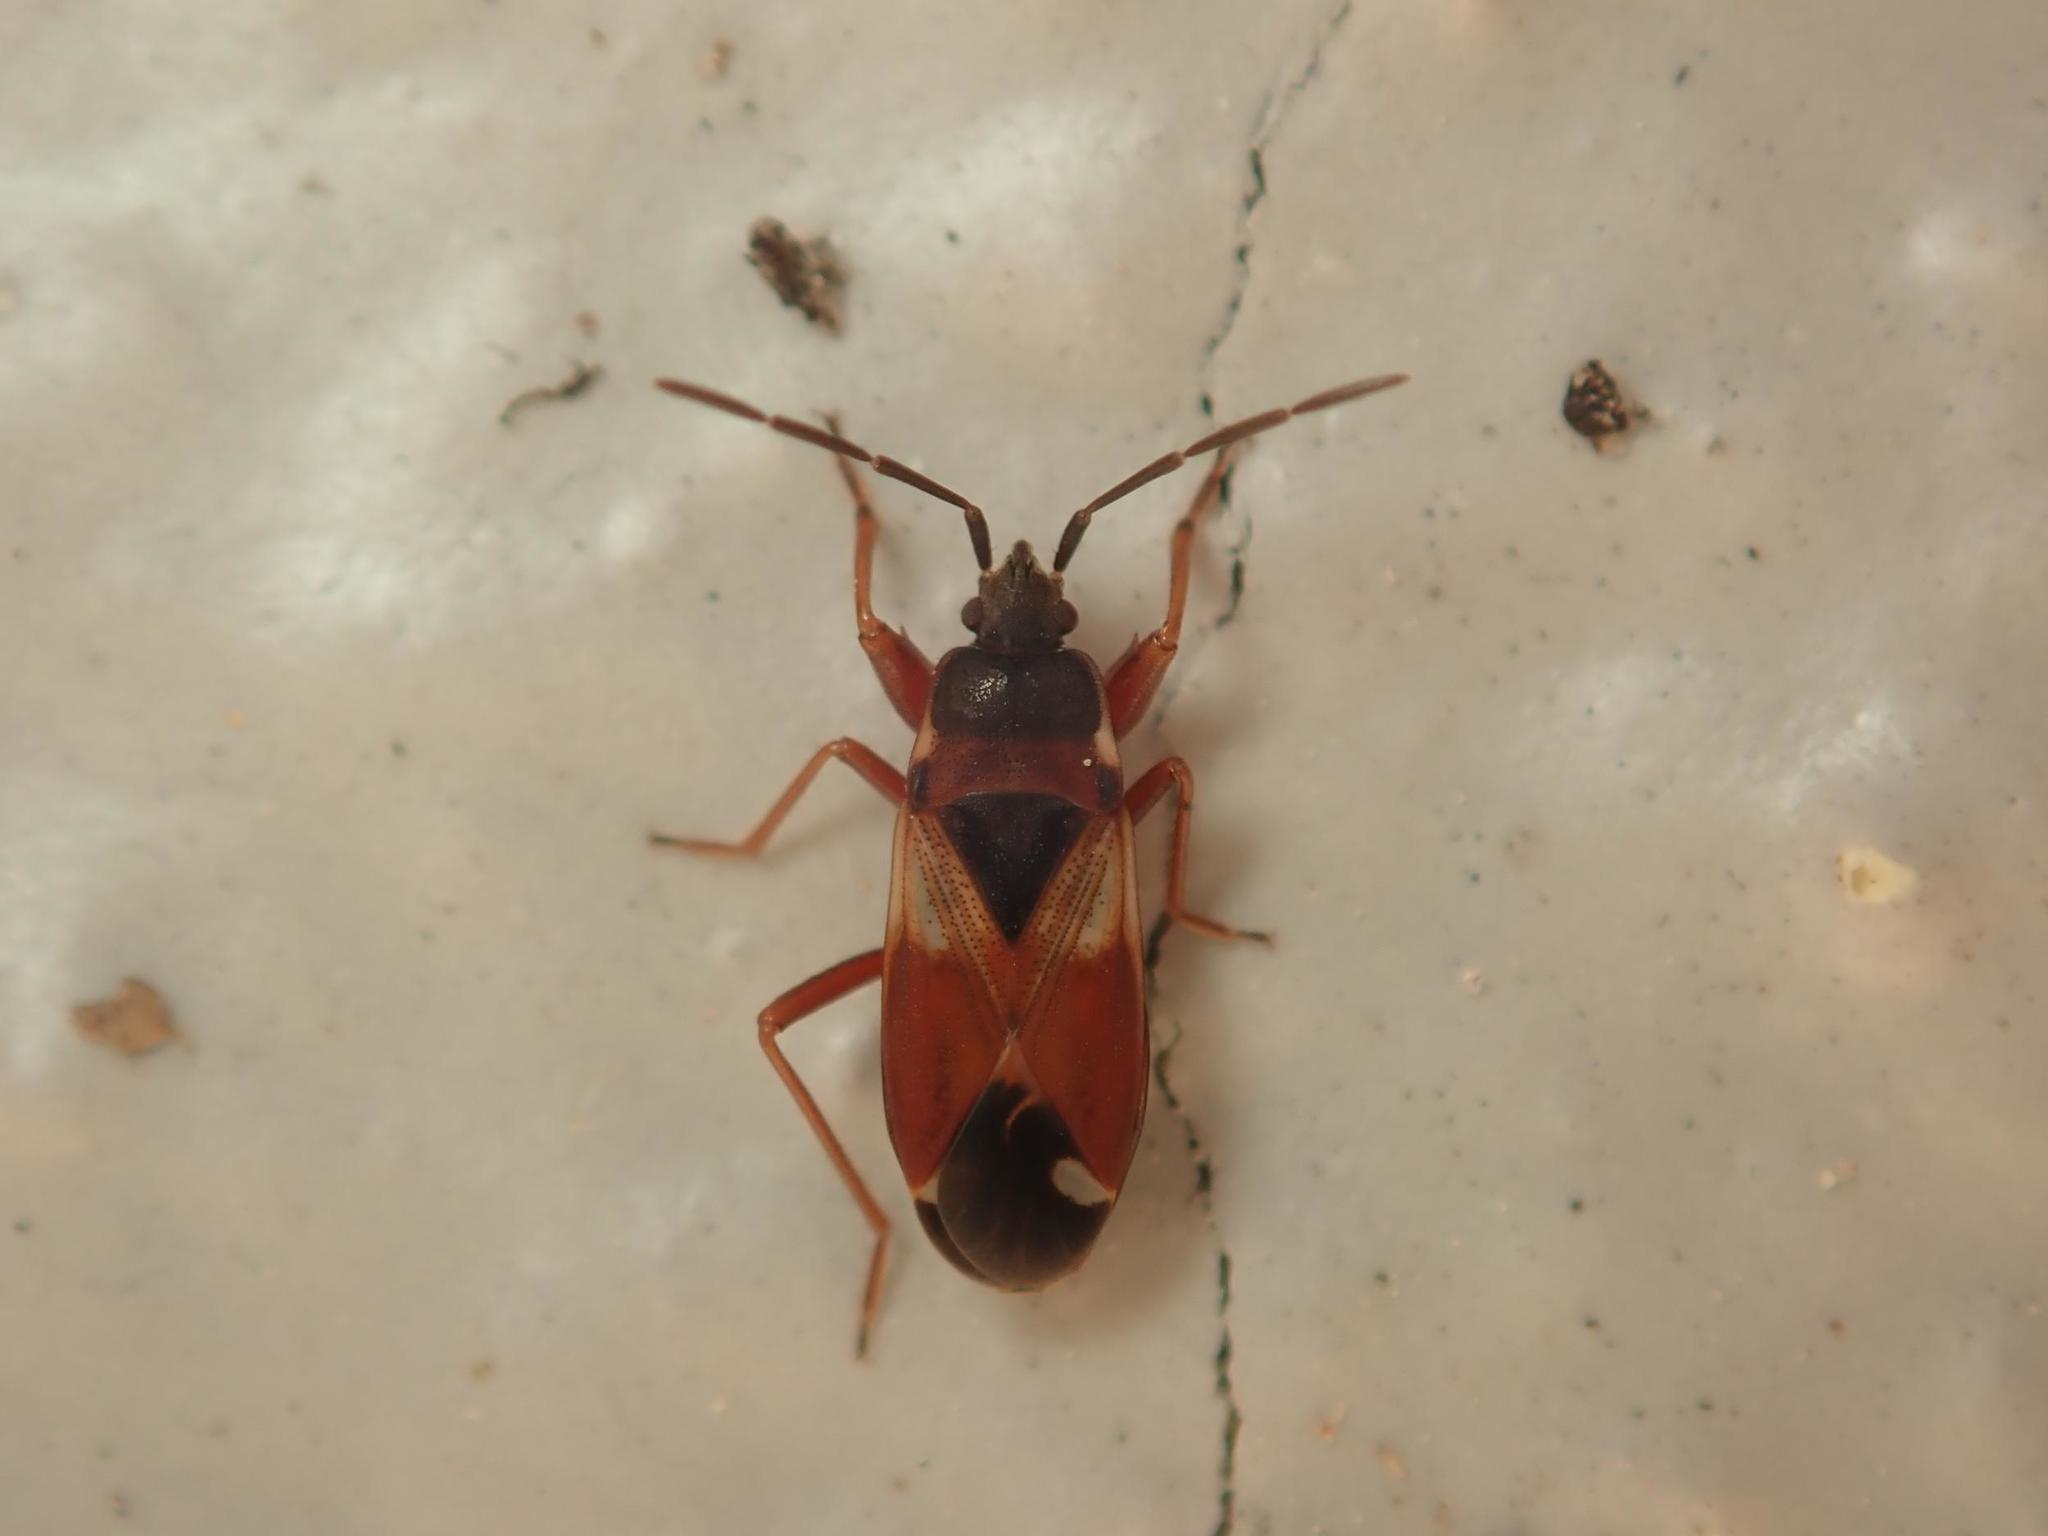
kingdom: Animalia
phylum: Arthropoda
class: Insecta
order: Hemiptera
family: Rhyparochromidae
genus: Eremocoris
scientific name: Eremocoris abietis
